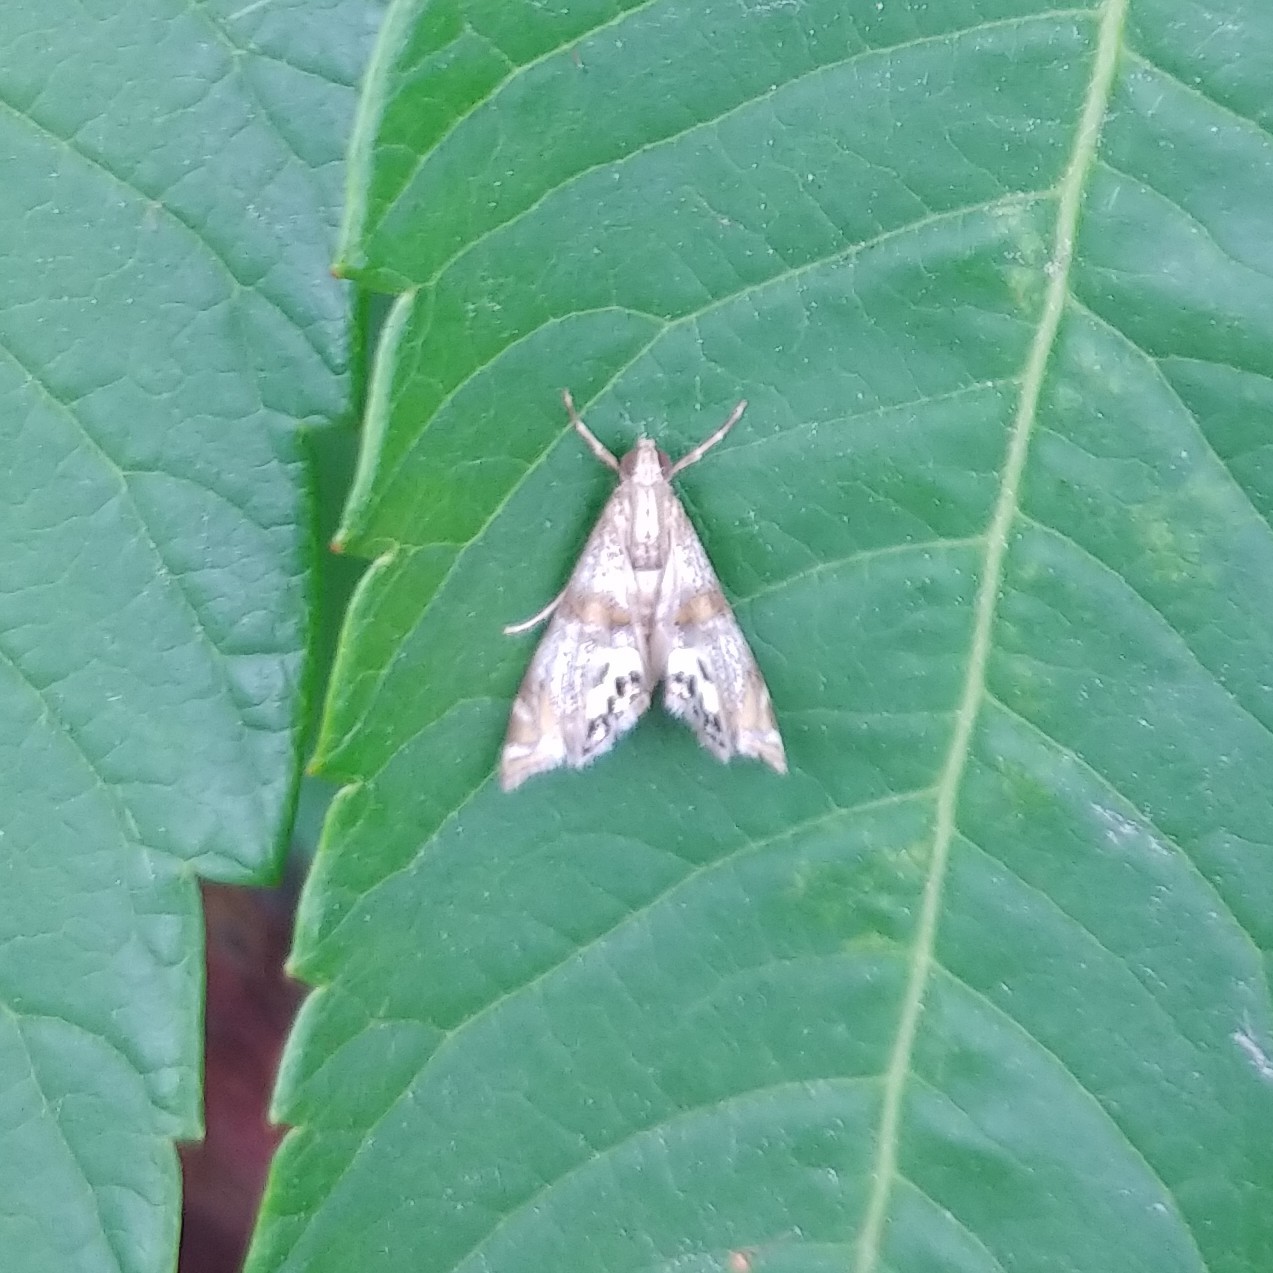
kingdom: Animalia
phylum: Arthropoda
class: Insecta
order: Lepidoptera
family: Crambidae
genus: Petrophila
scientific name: Petrophila bifascialis
